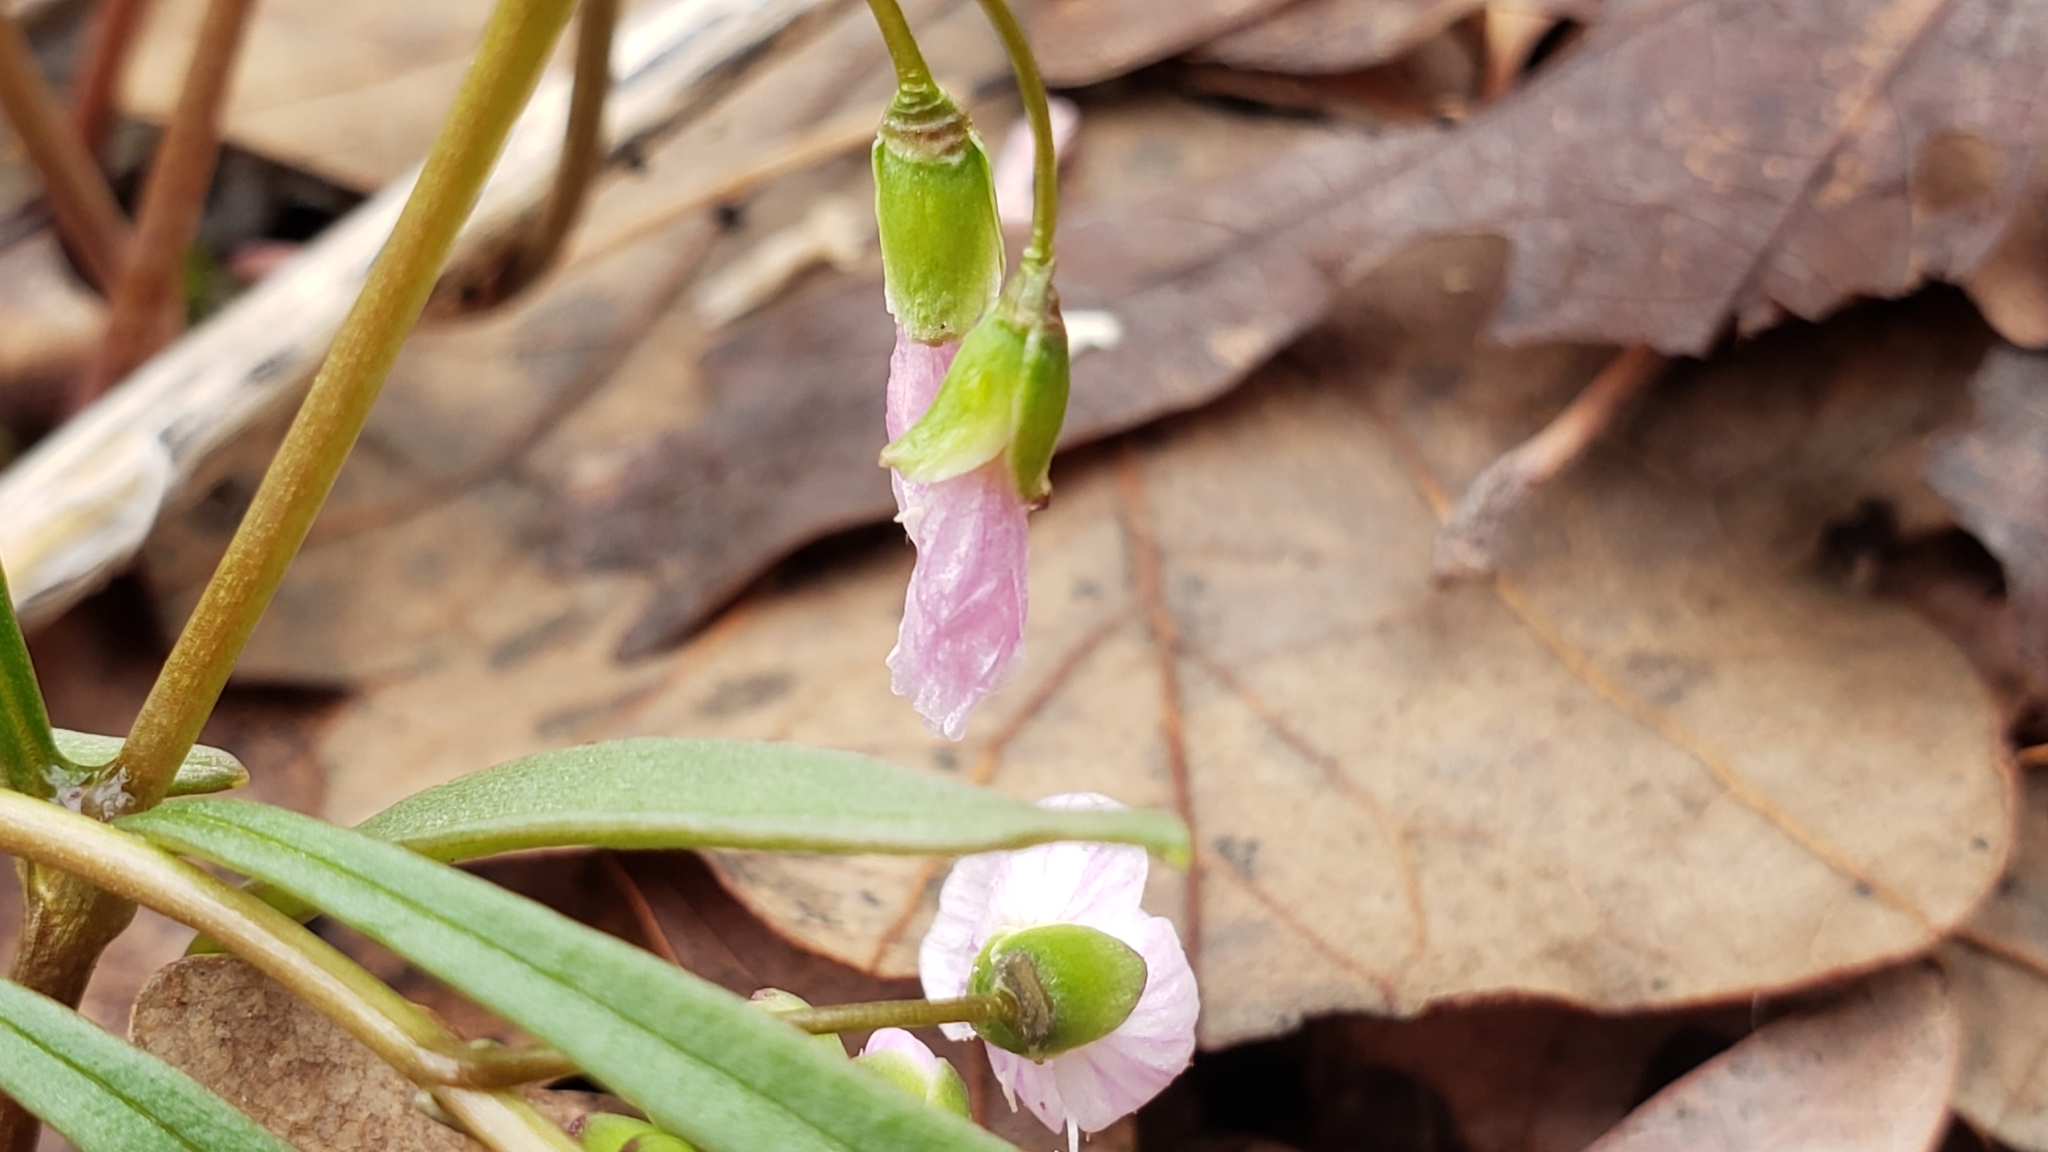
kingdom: Plantae
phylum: Tracheophyta
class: Magnoliopsida
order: Caryophyllales
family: Montiaceae
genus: Claytonia
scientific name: Claytonia virginica
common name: Virginia springbeauty
